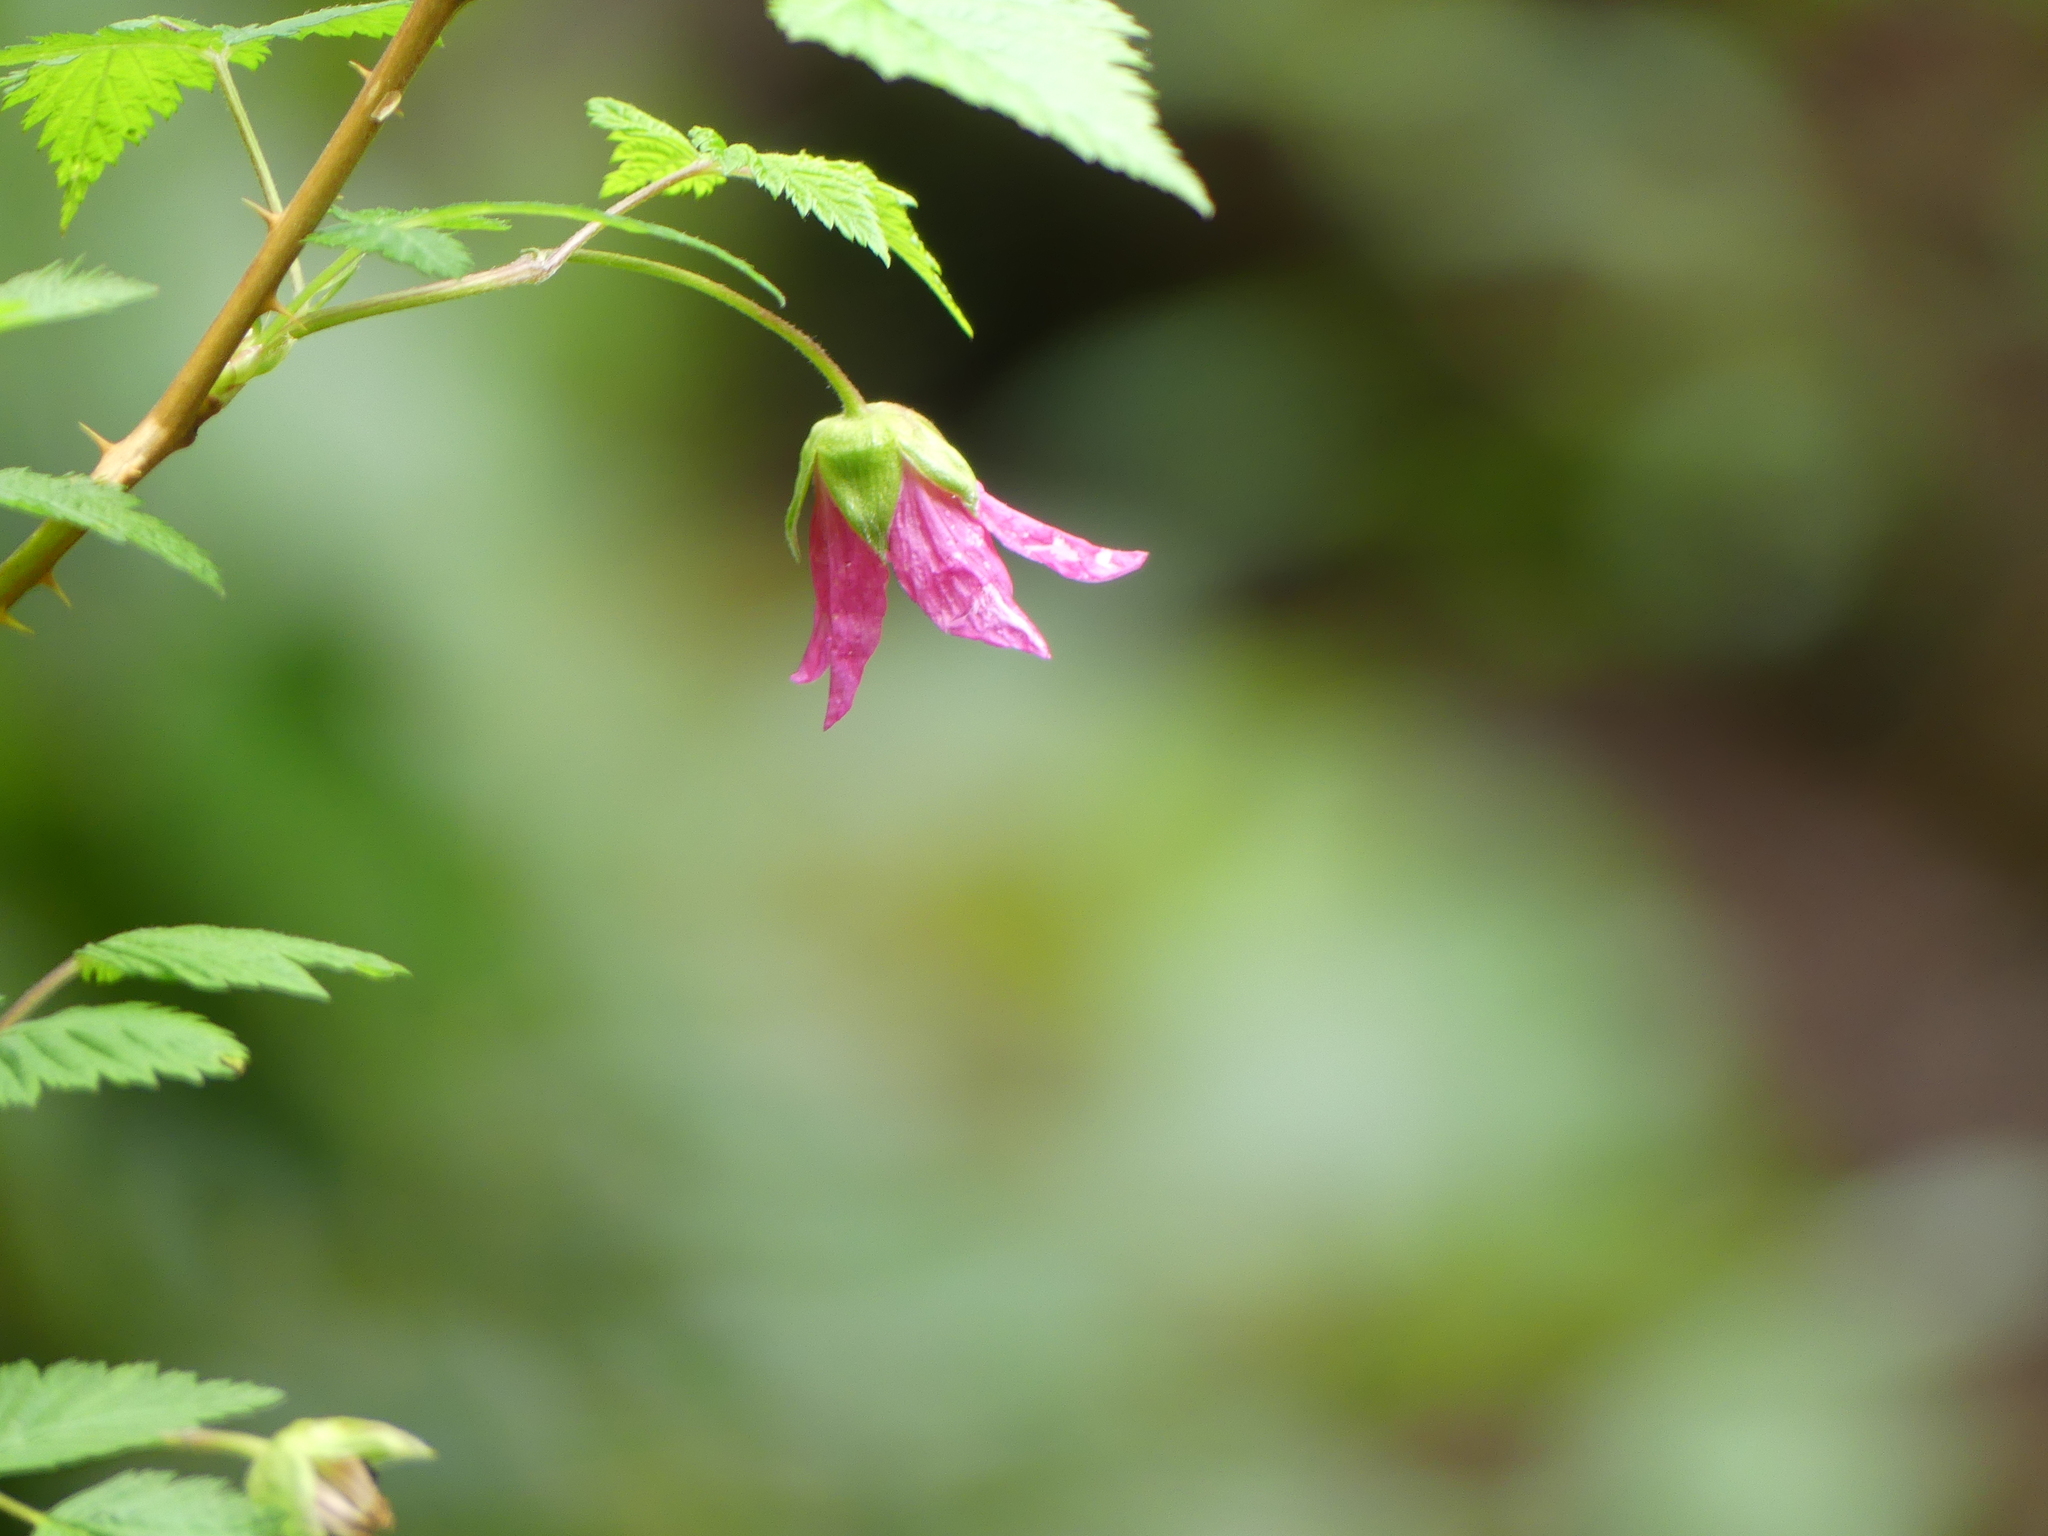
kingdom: Plantae
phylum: Tracheophyta
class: Magnoliopsida
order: Rosales
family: Rosaceae
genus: Rubus
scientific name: Rubus spectabilis
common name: Salmonberry
